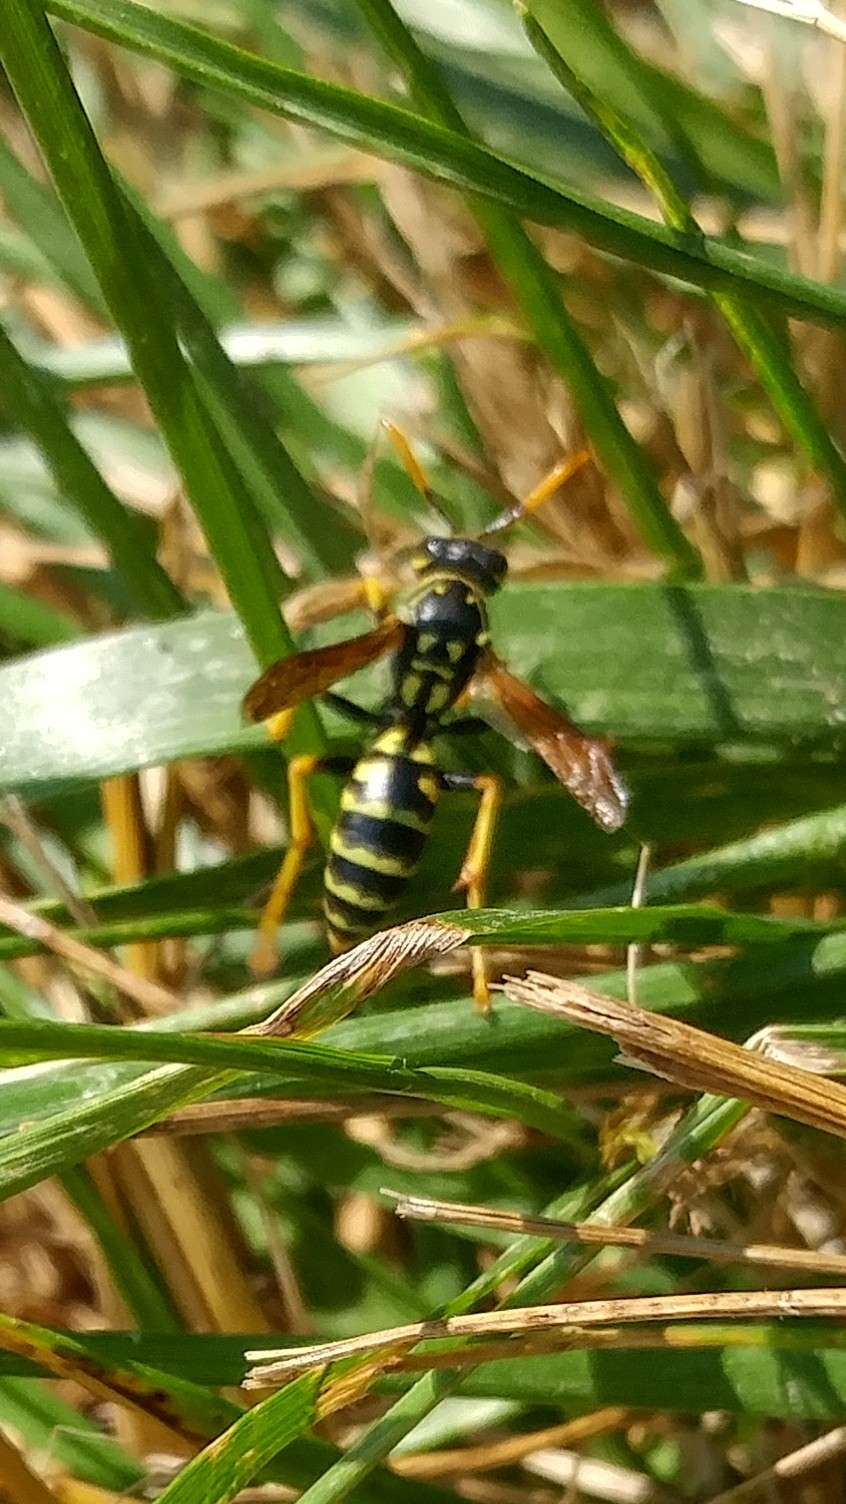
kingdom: Animalia
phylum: Arthropoda
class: Insecta
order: Hymenoptera
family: Eumenidae
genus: Polistes
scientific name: Polistes dominula
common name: Paper wasp
